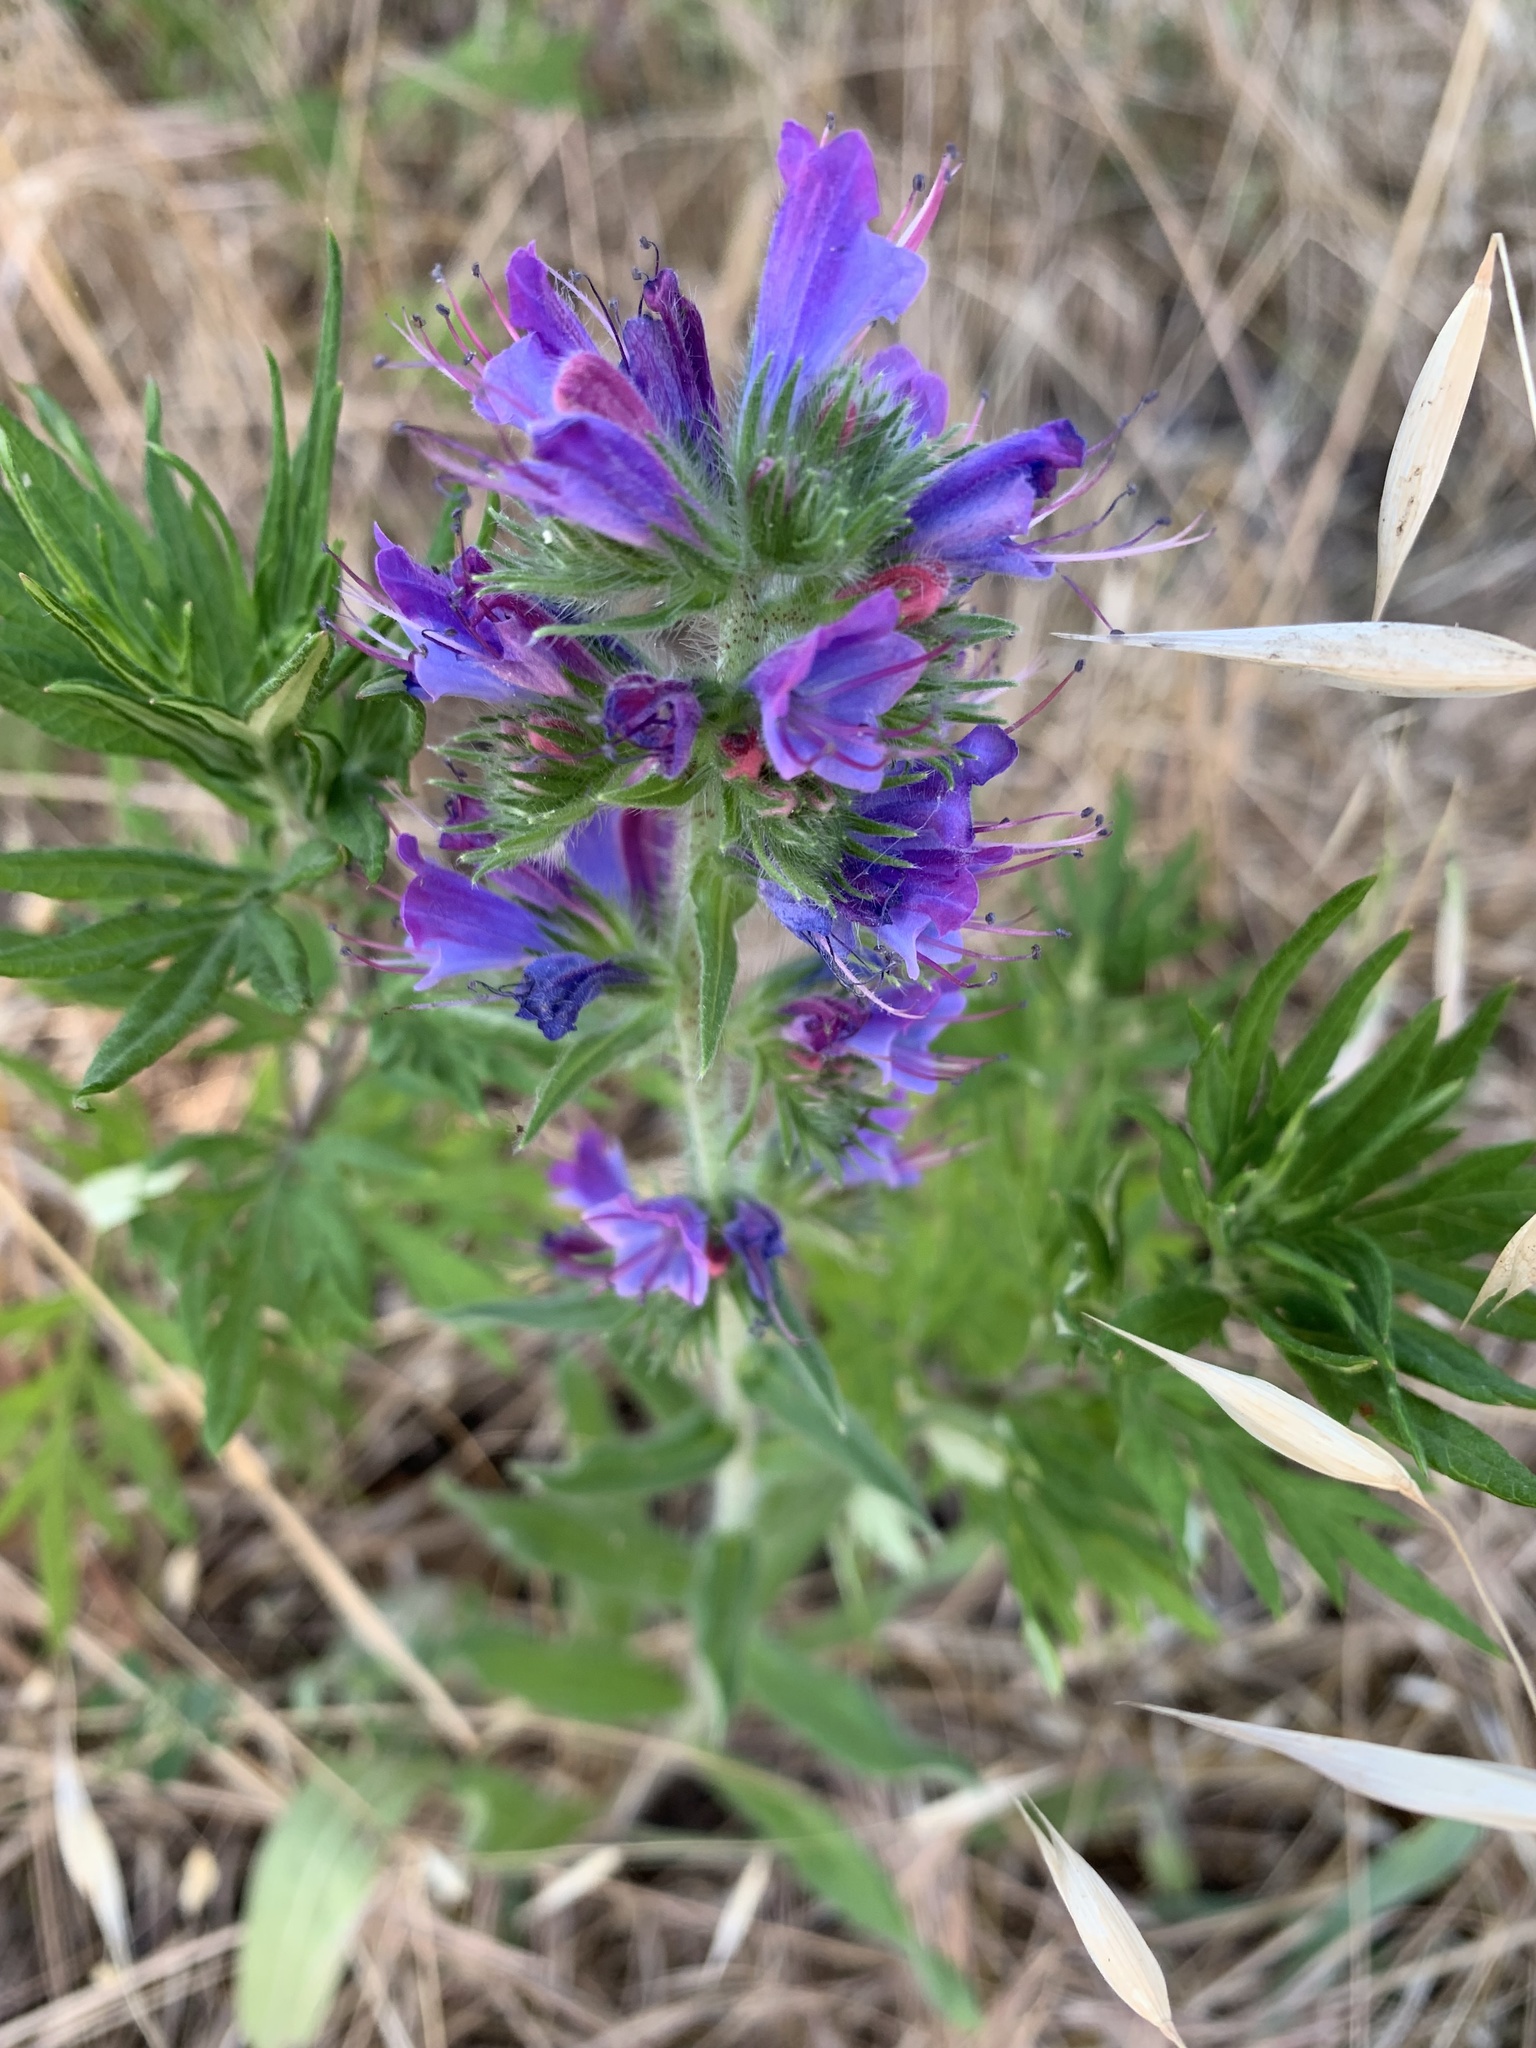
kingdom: Plantae
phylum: Tracheophyta
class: Magnoliopsida
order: Boraginales
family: Boraginaceae
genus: Echium
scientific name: Echium vulgare
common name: Common viper's bugloss
